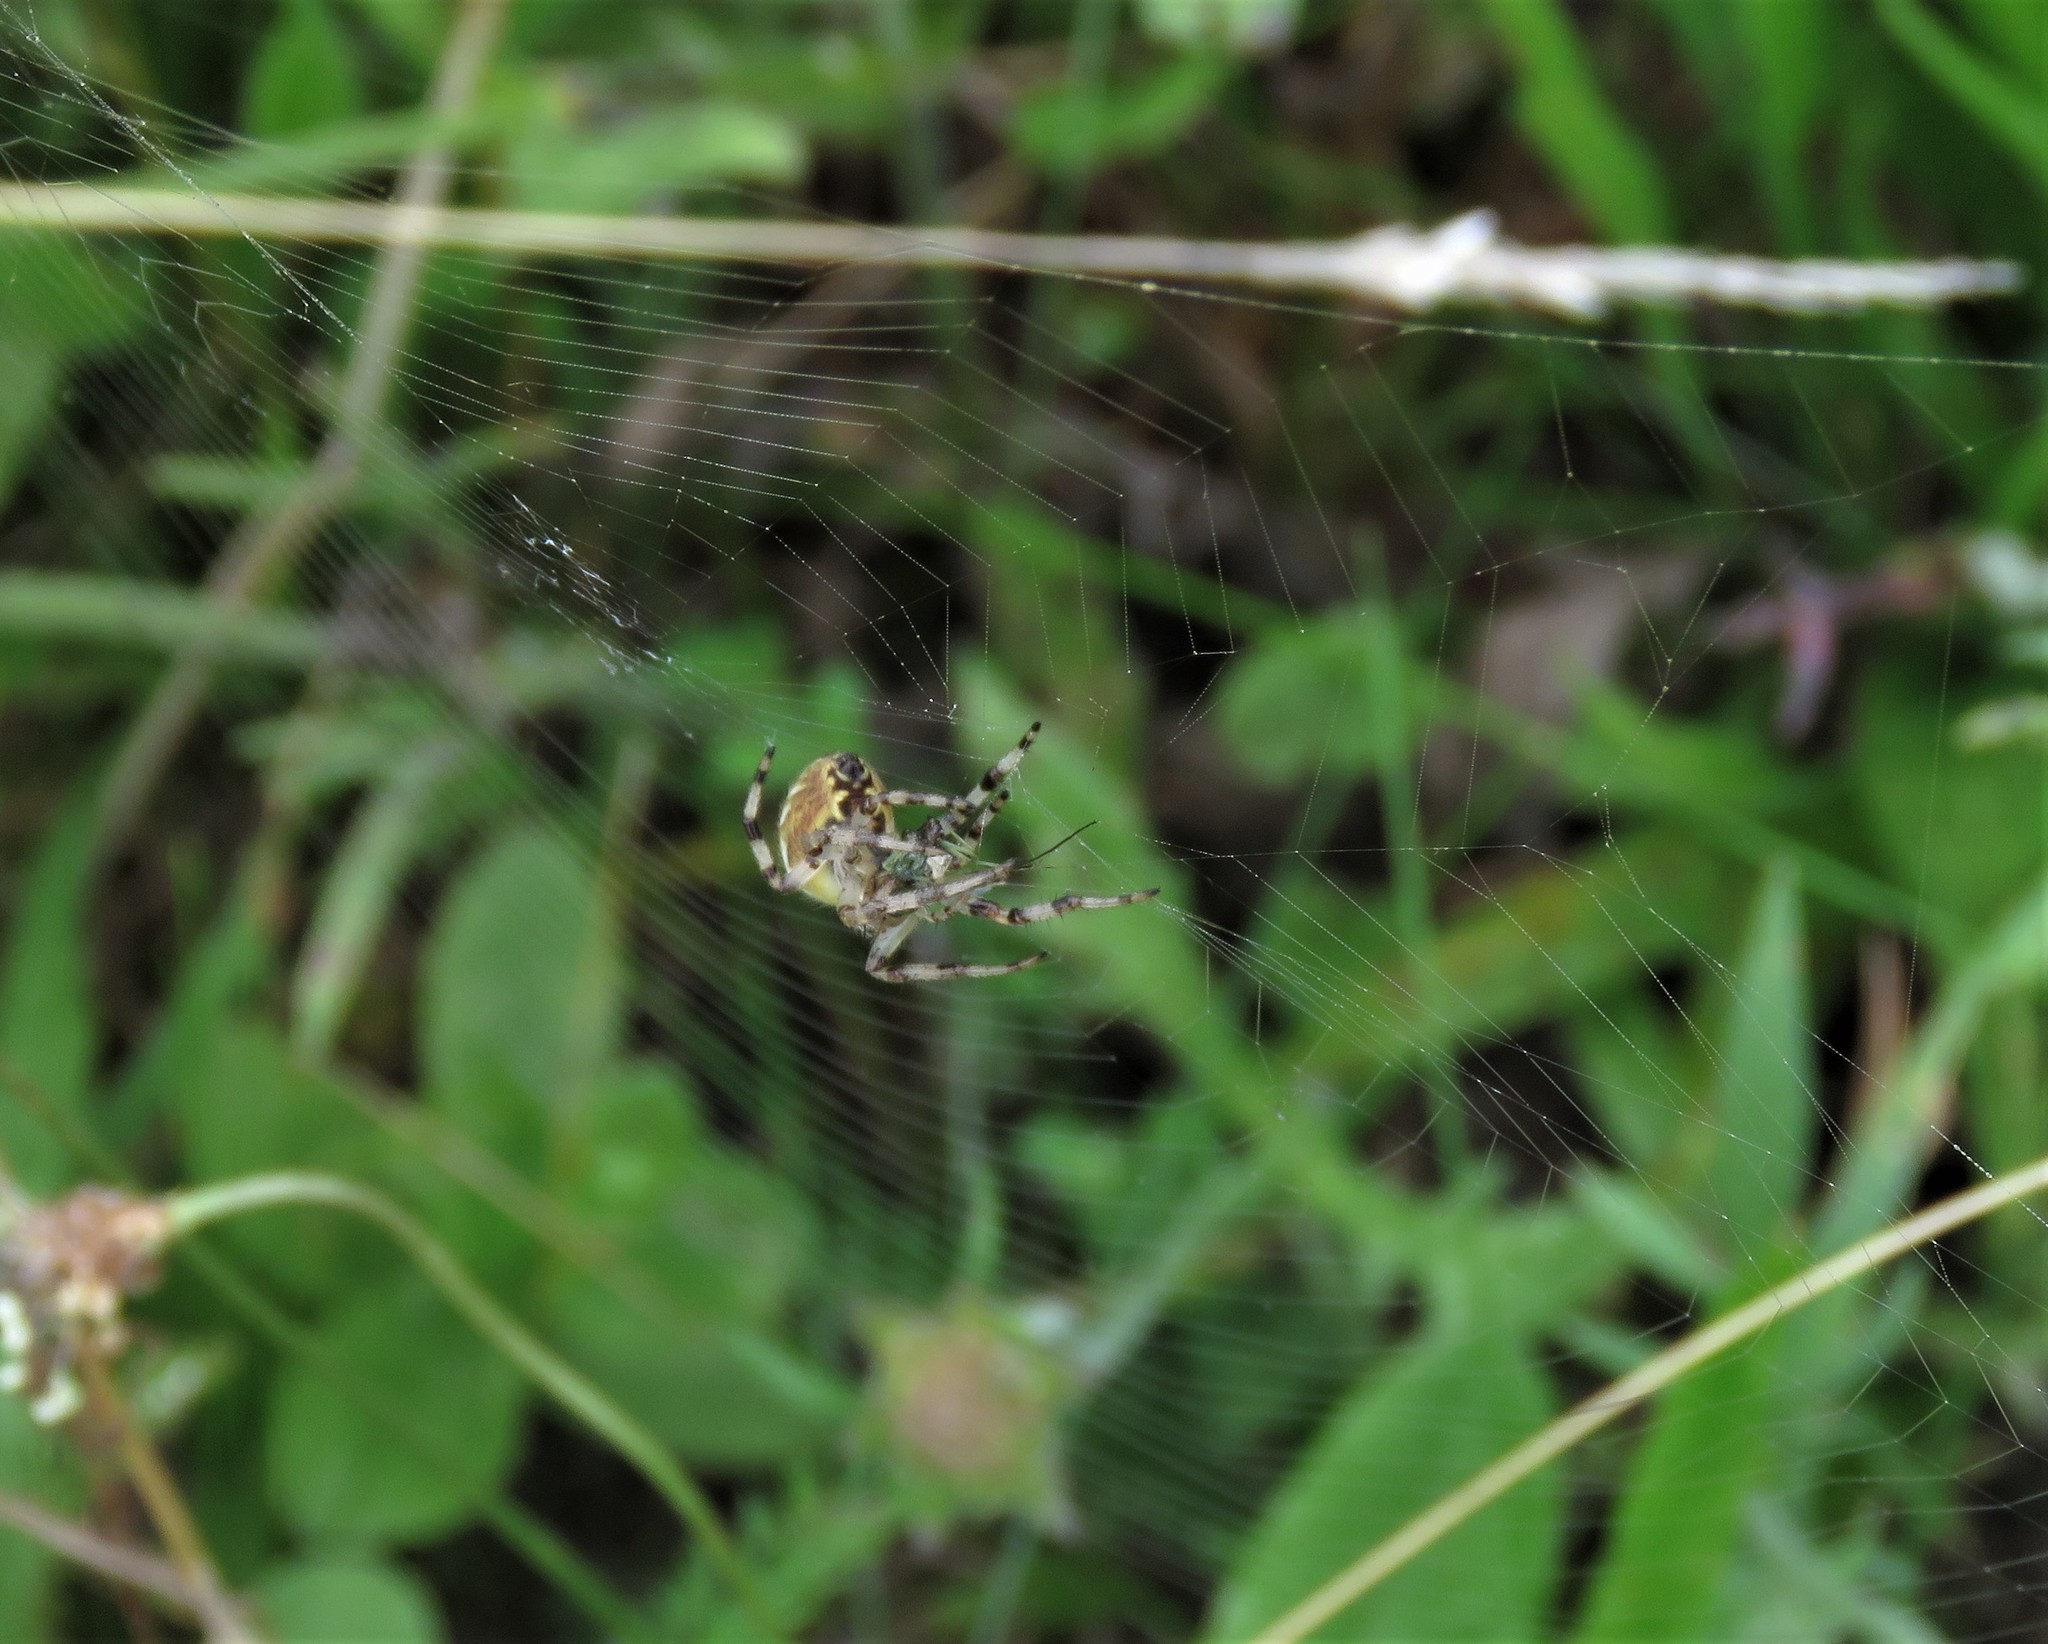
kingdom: Animalia
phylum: Arthropoda
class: Arachnida
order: Araneae
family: Araneidae
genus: Araneus
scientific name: Araneus quadratus
